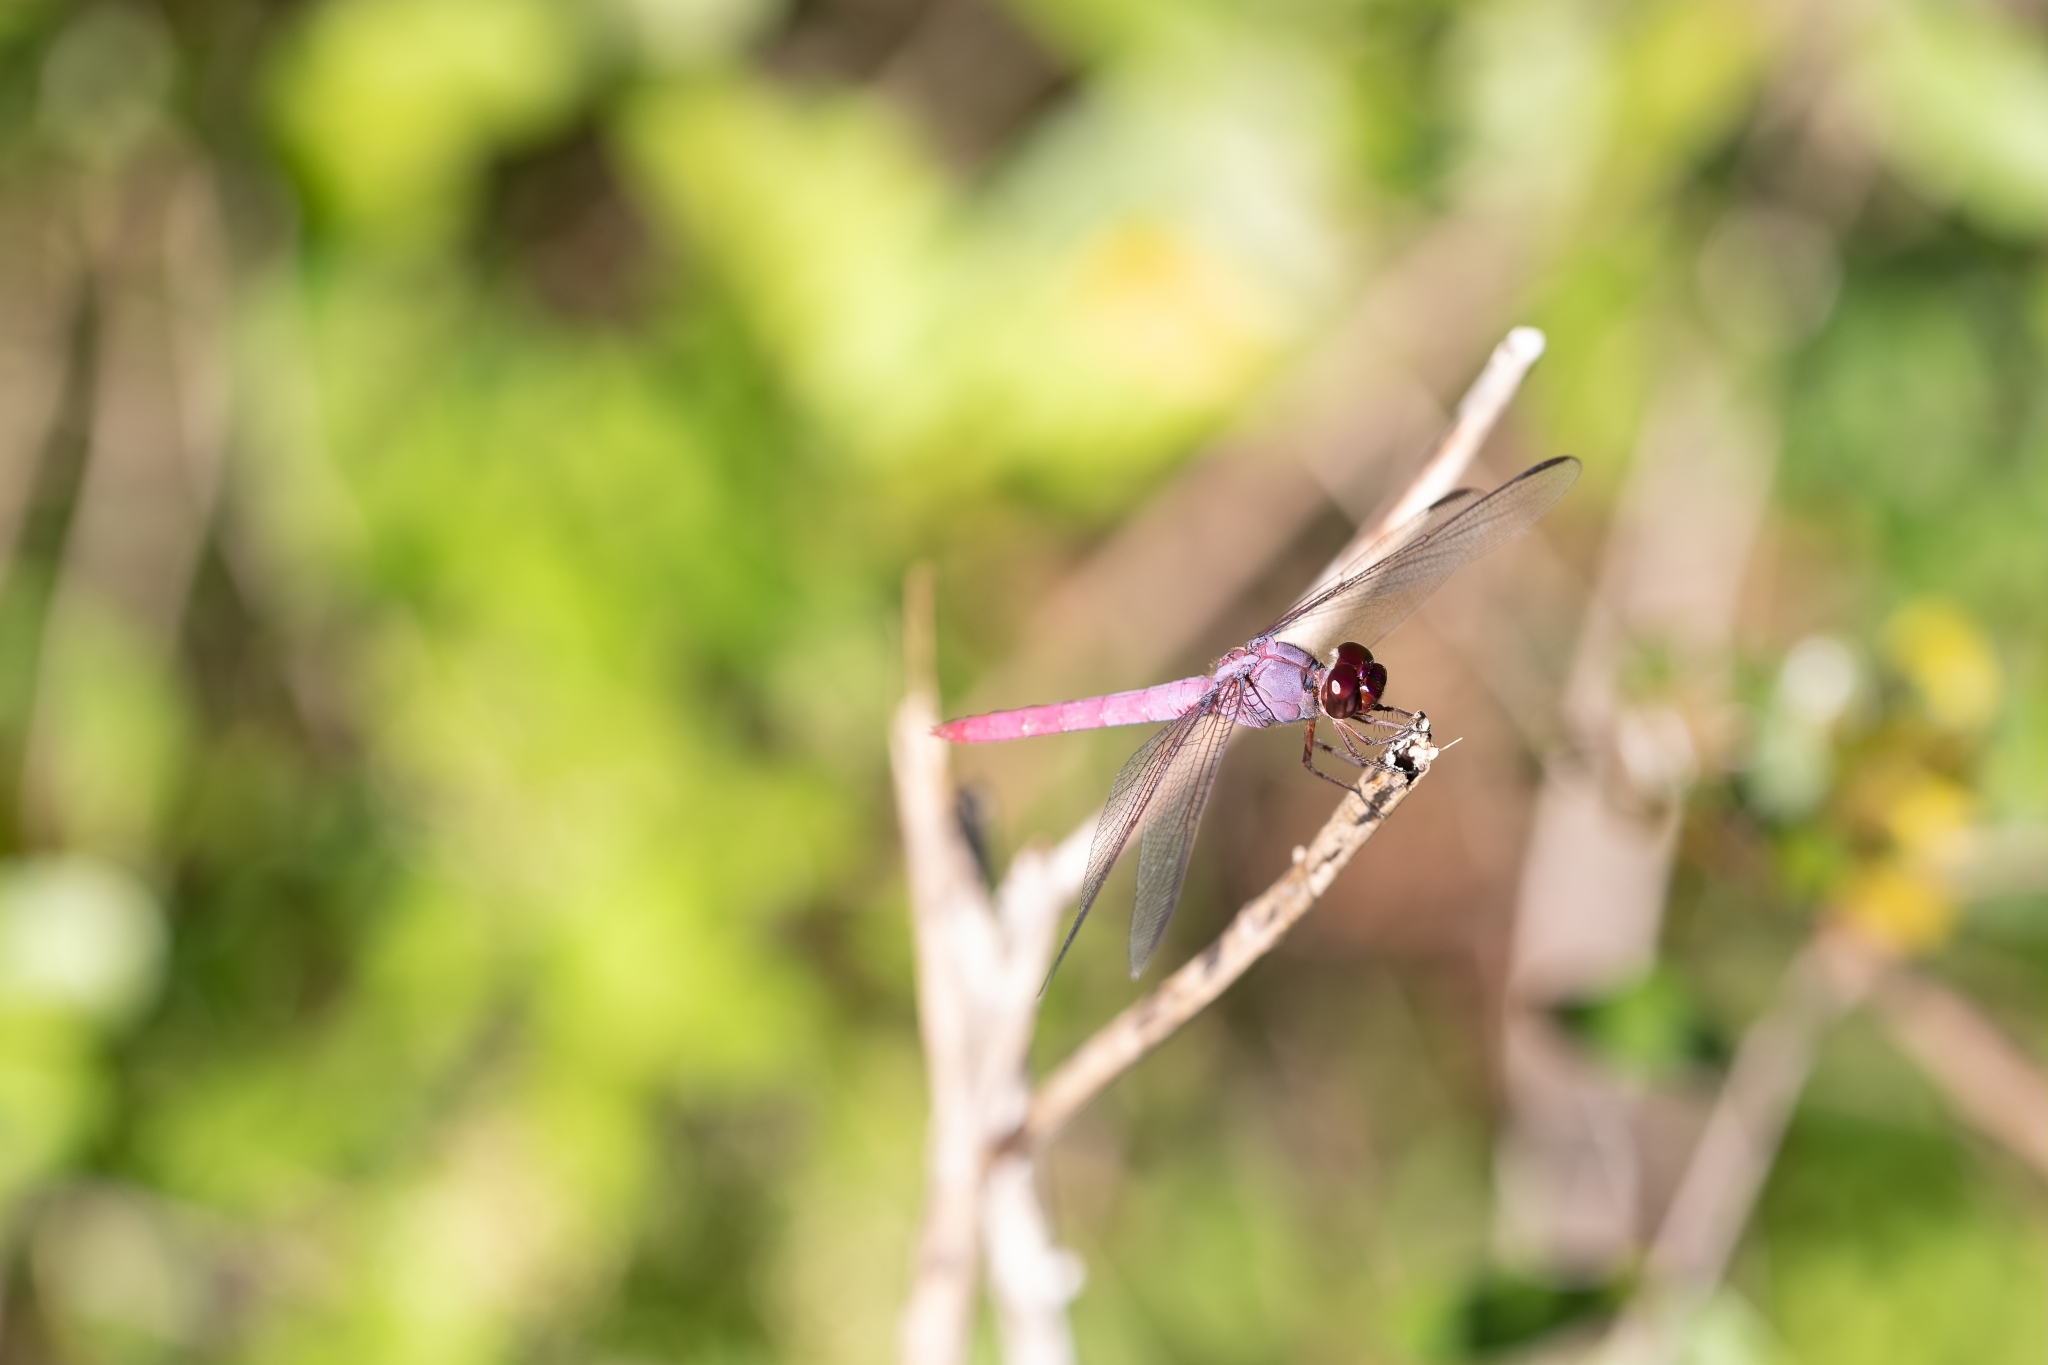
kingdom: Animalia
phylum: Arthropoda
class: Insecta
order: Odonata
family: Libellulidae
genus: Orthemis
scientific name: Orthemis ferruginea
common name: Roseate skimmer
